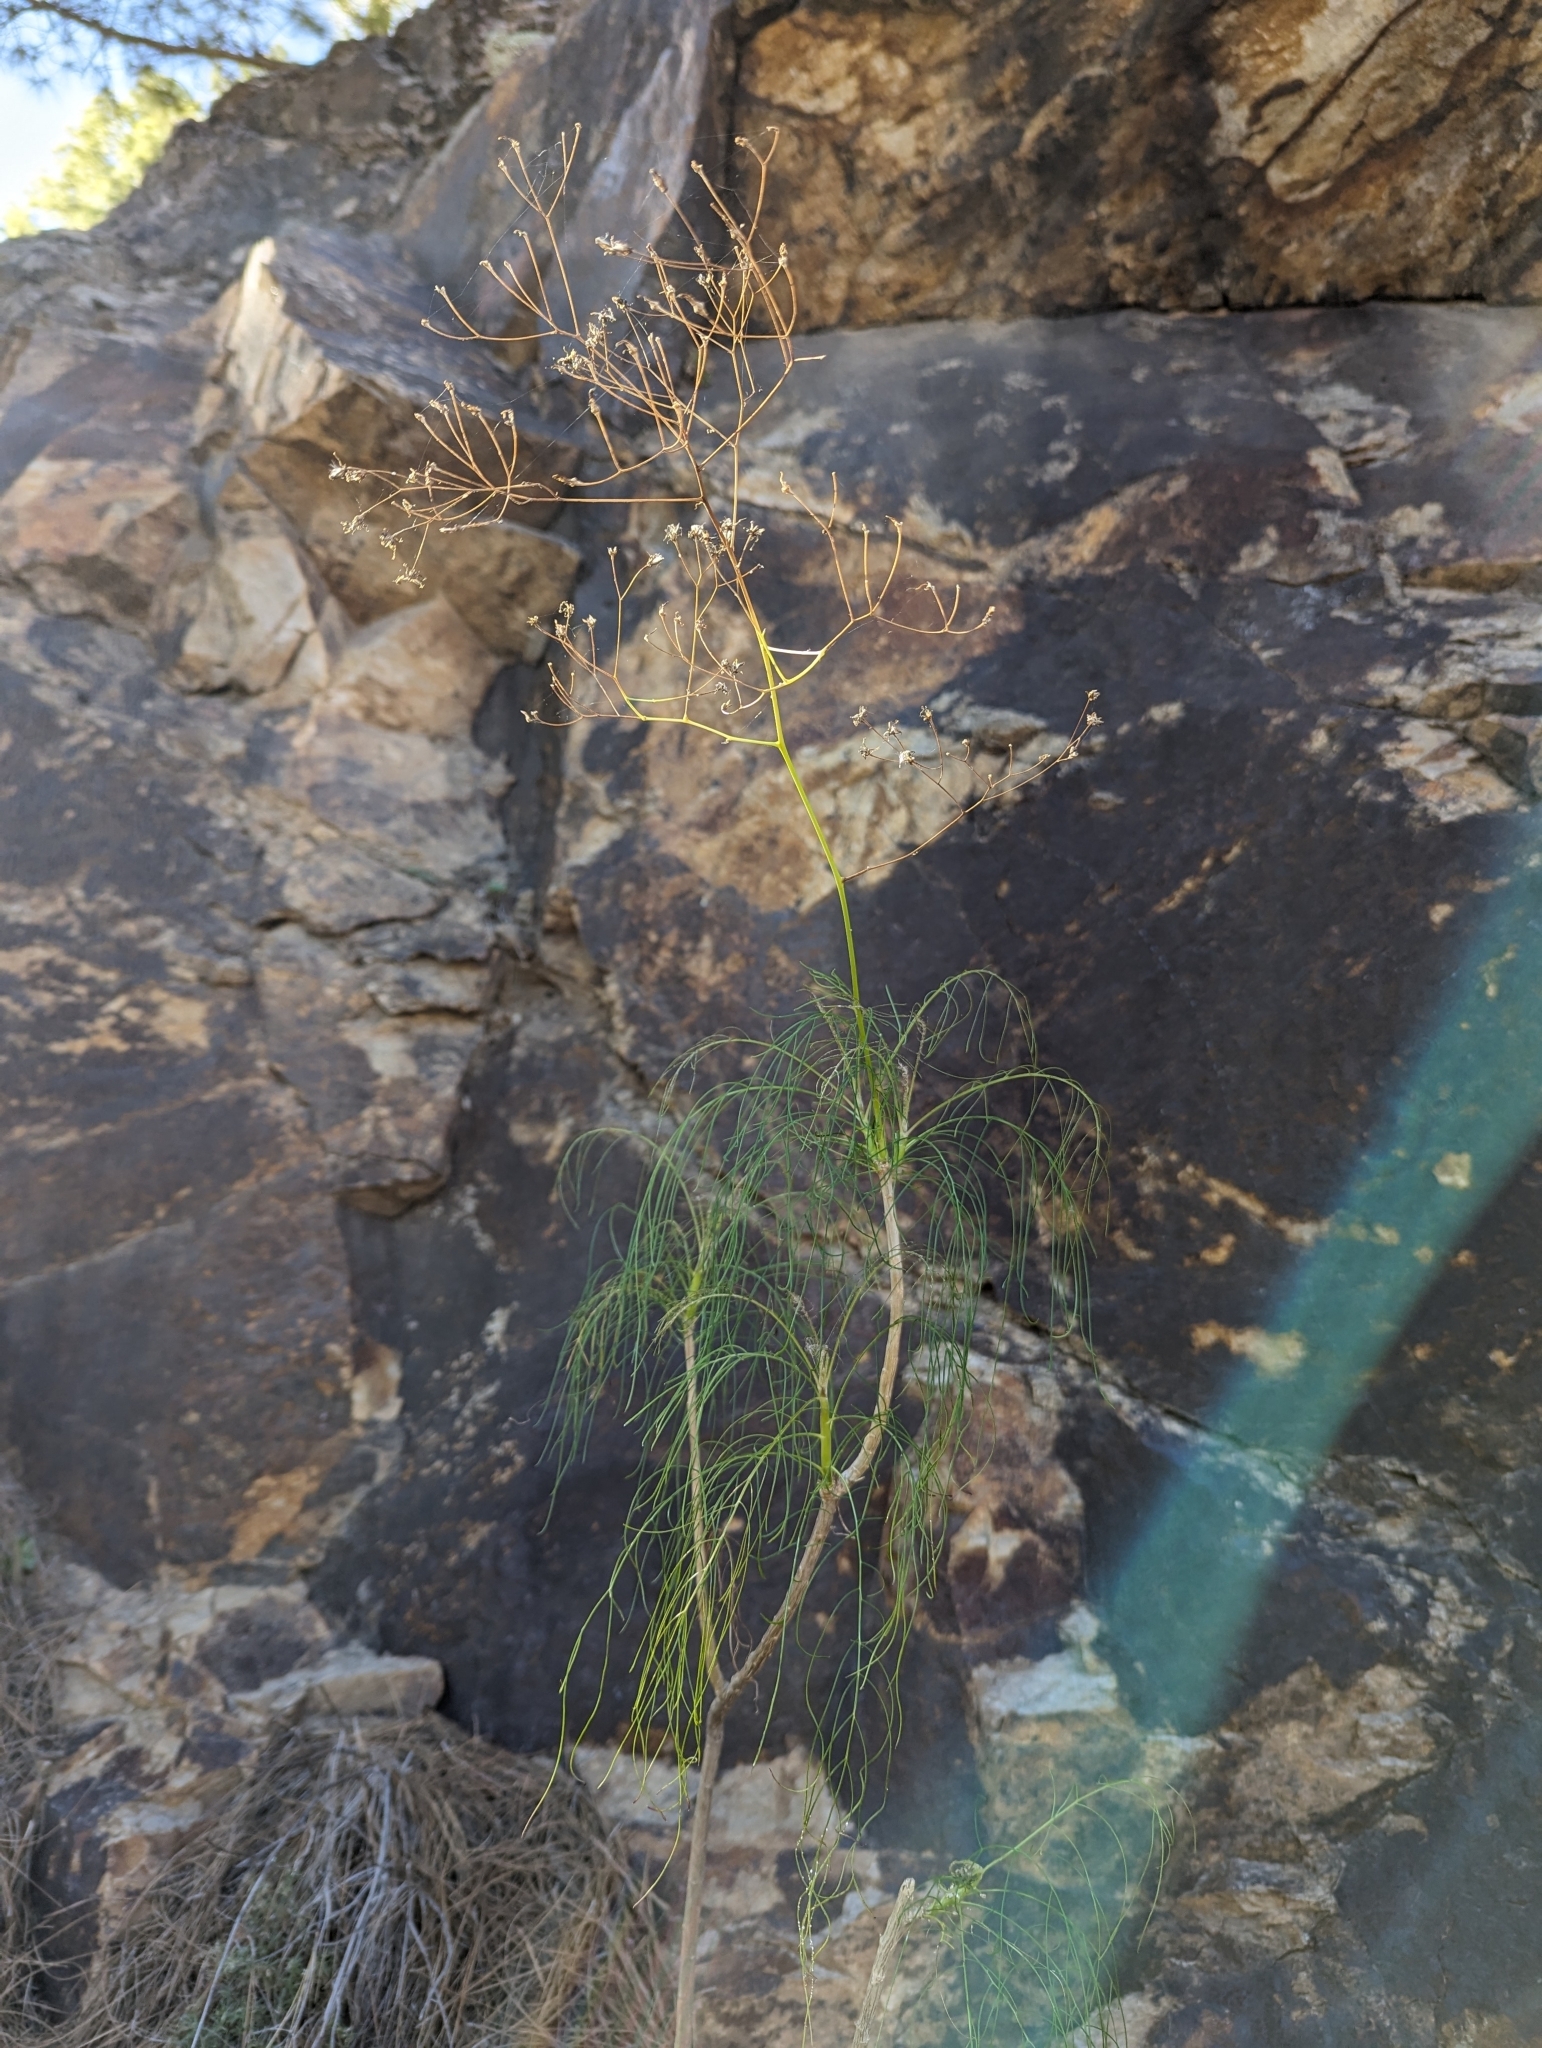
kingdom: Plantae
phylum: Tracheophyta
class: Magnoliopsida
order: Asterales
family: Asteraceae
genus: Sonchus
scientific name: Sonchus leptocephalus
